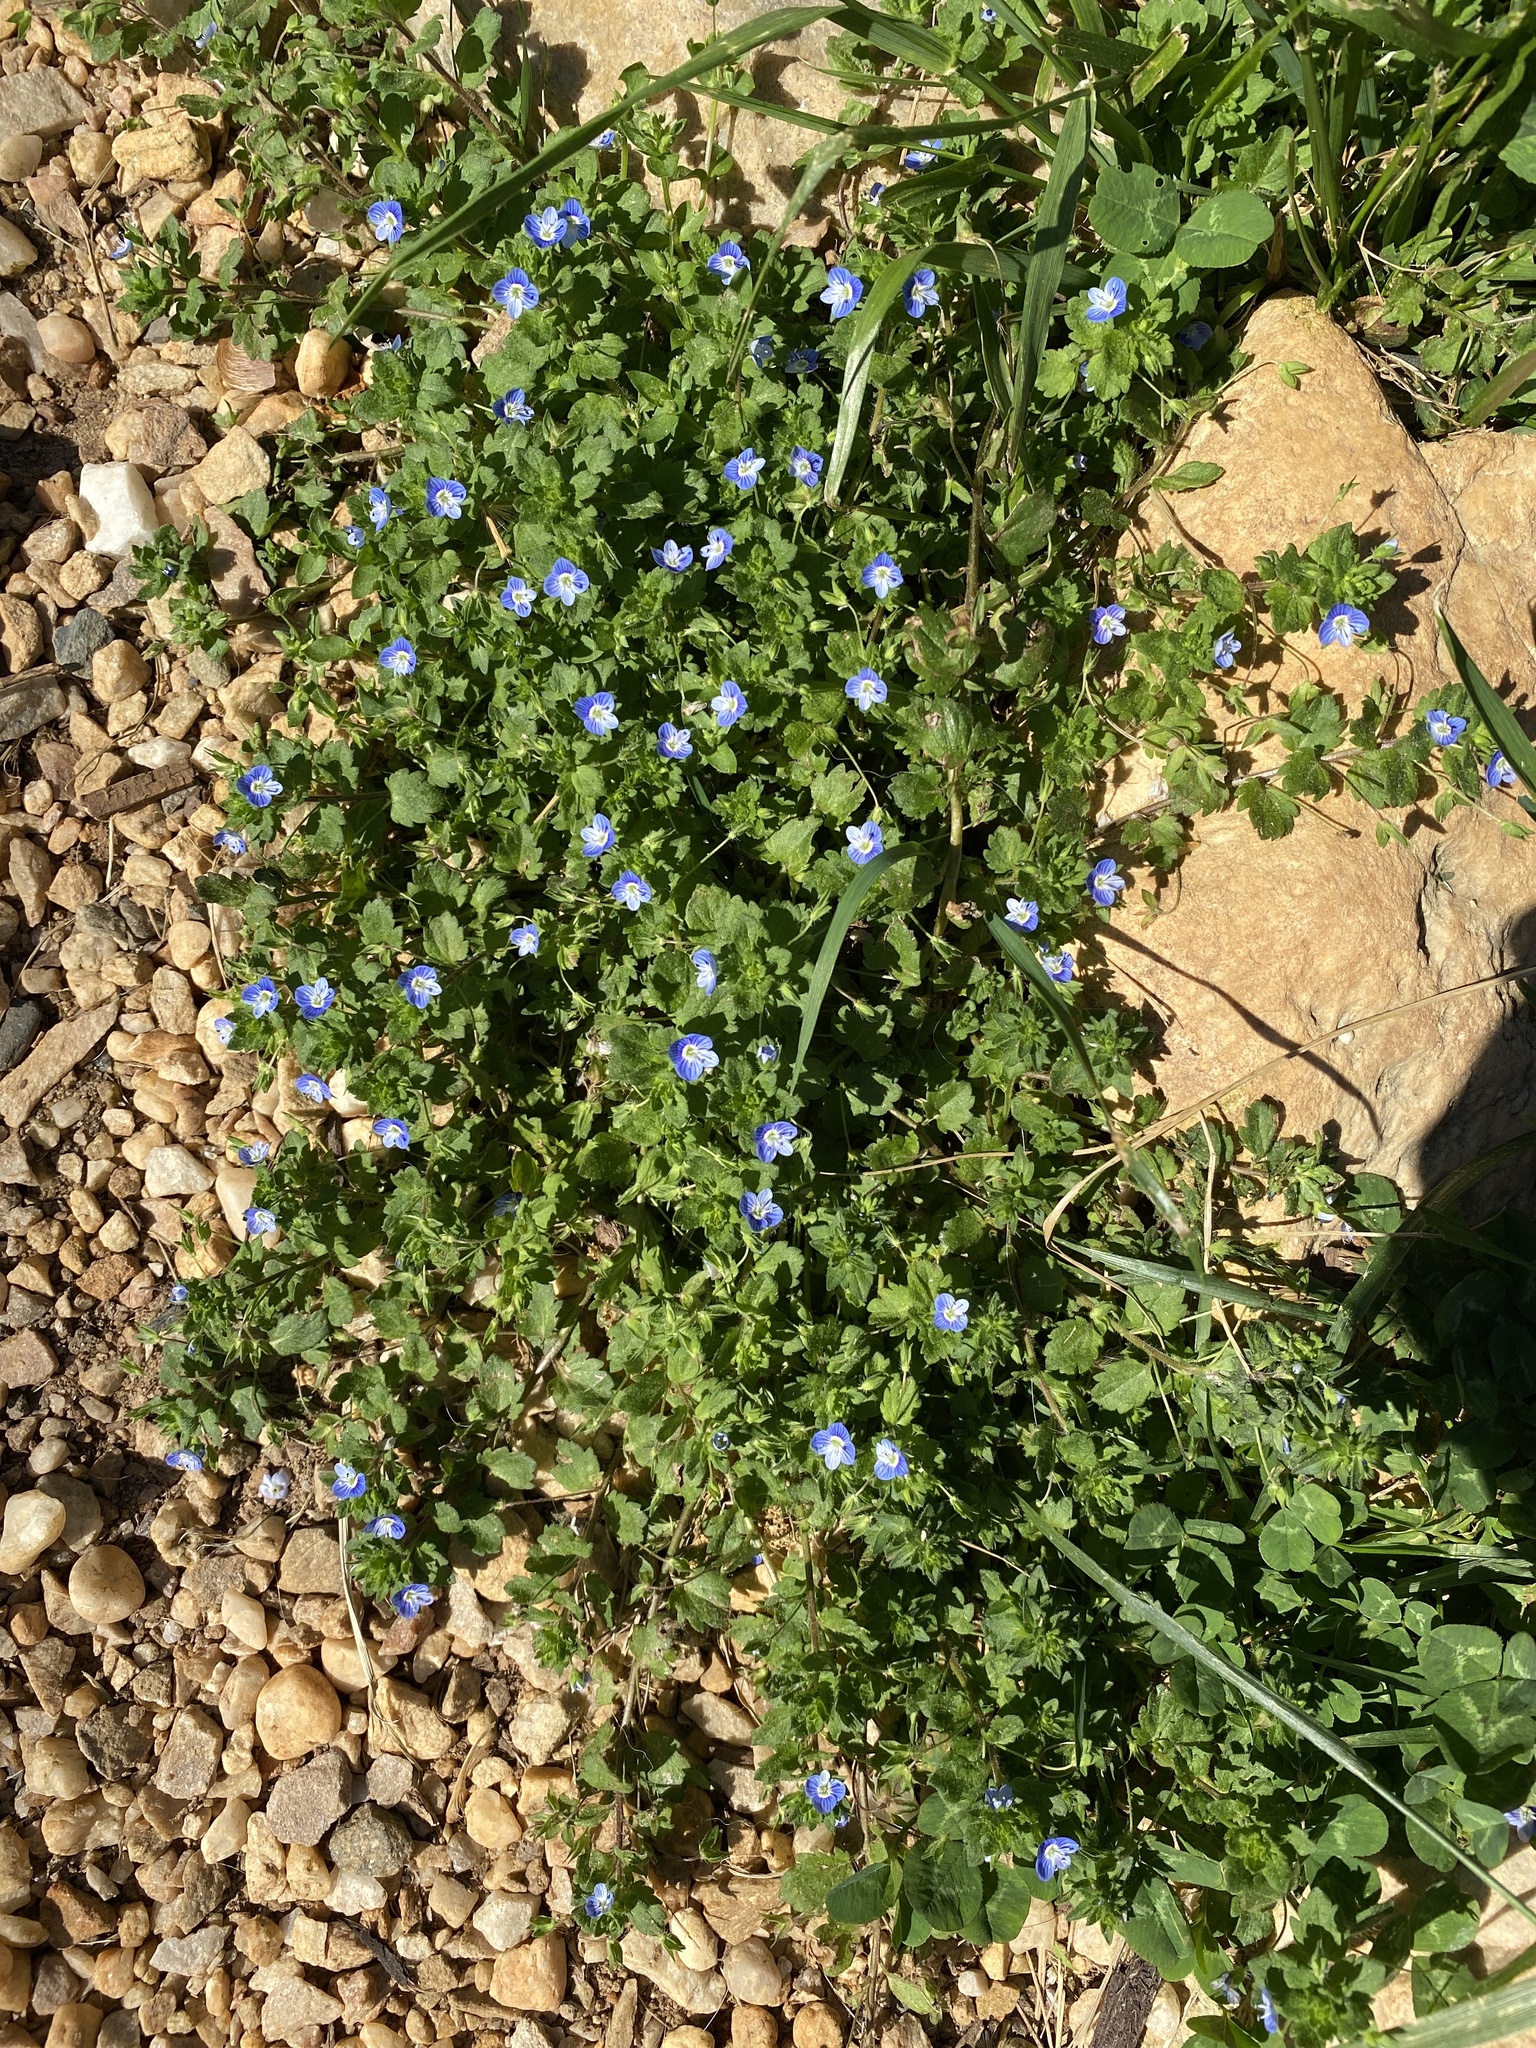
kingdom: Plantae
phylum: Tracheophyta
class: Magnoliopsida
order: Lamiales
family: Plantaginaceae
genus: Veronica
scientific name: Veronica persica
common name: Common field-speedwell
